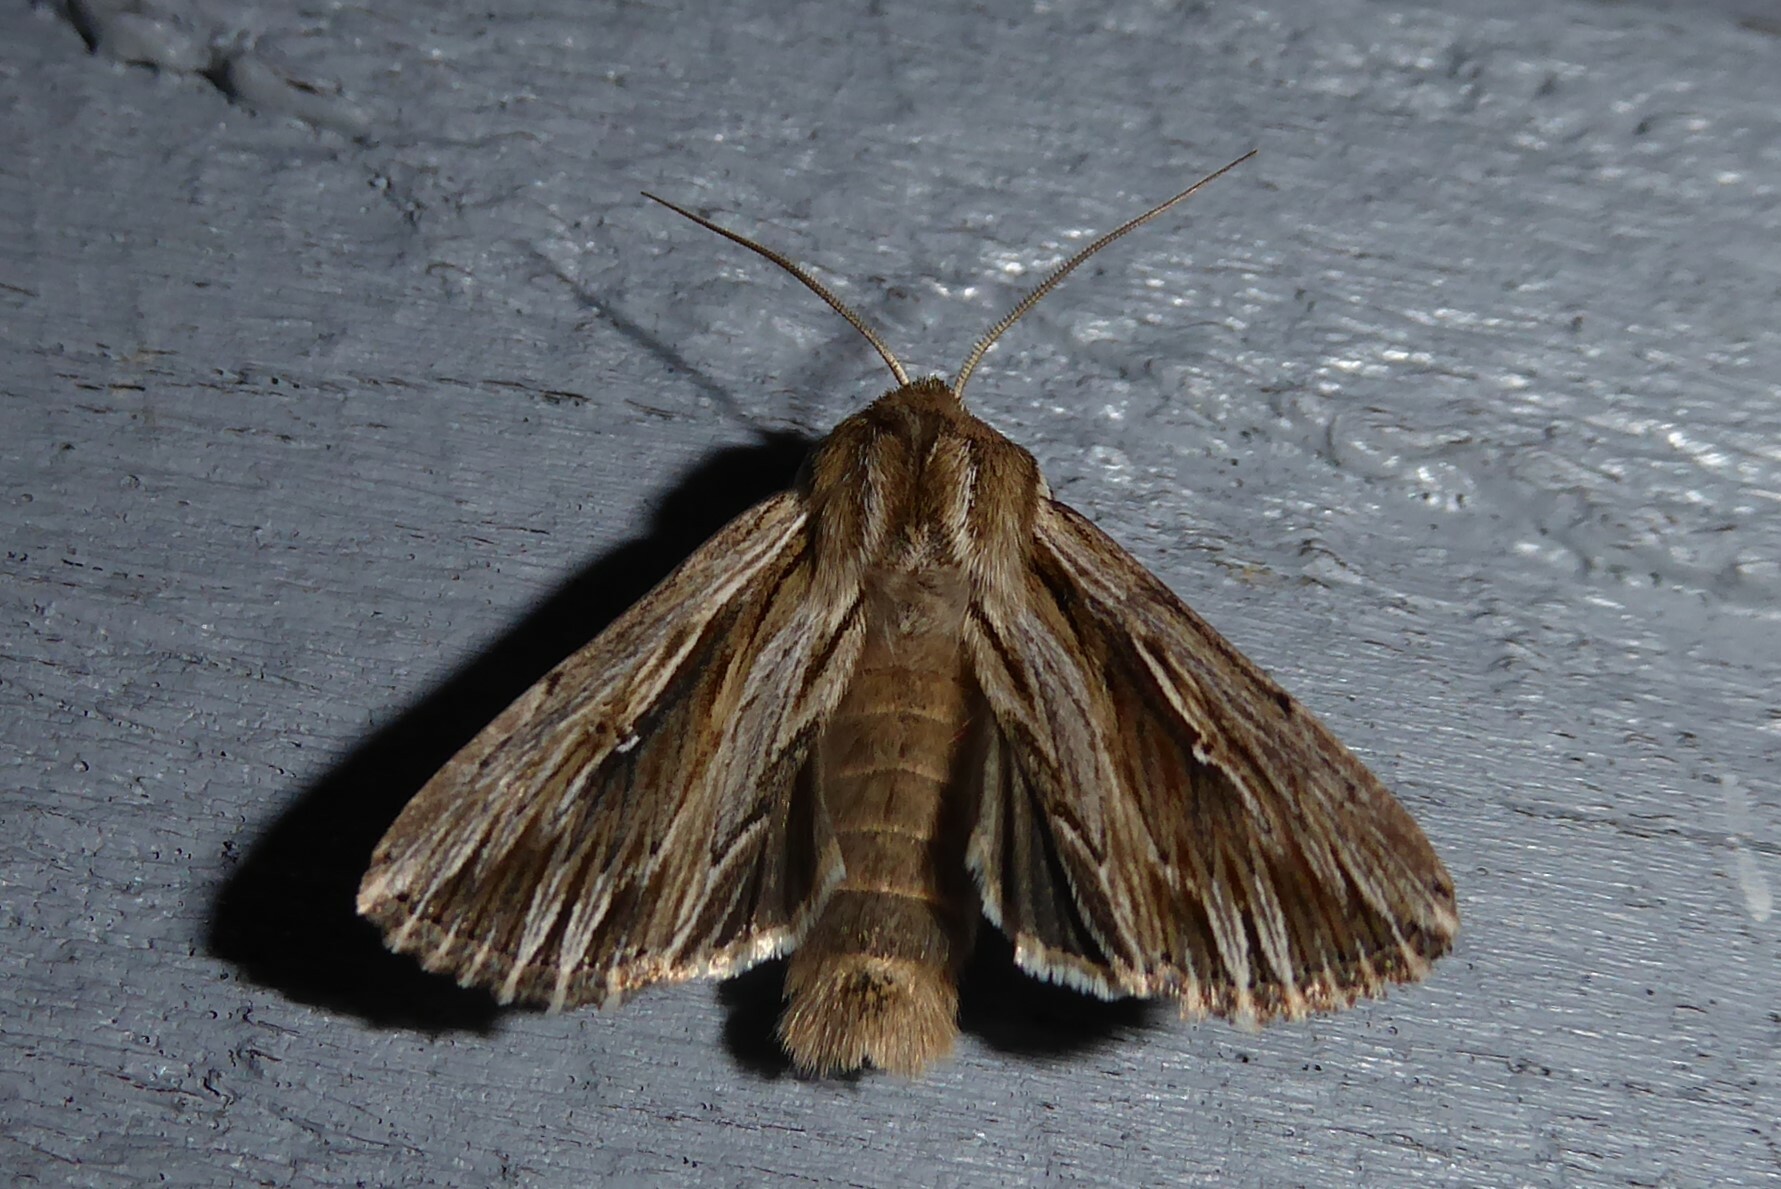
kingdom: Animalia
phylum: Arthropoda
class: Insecta
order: Lepidoptera
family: Noctuidae
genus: Persectania
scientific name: Persectania aversa
